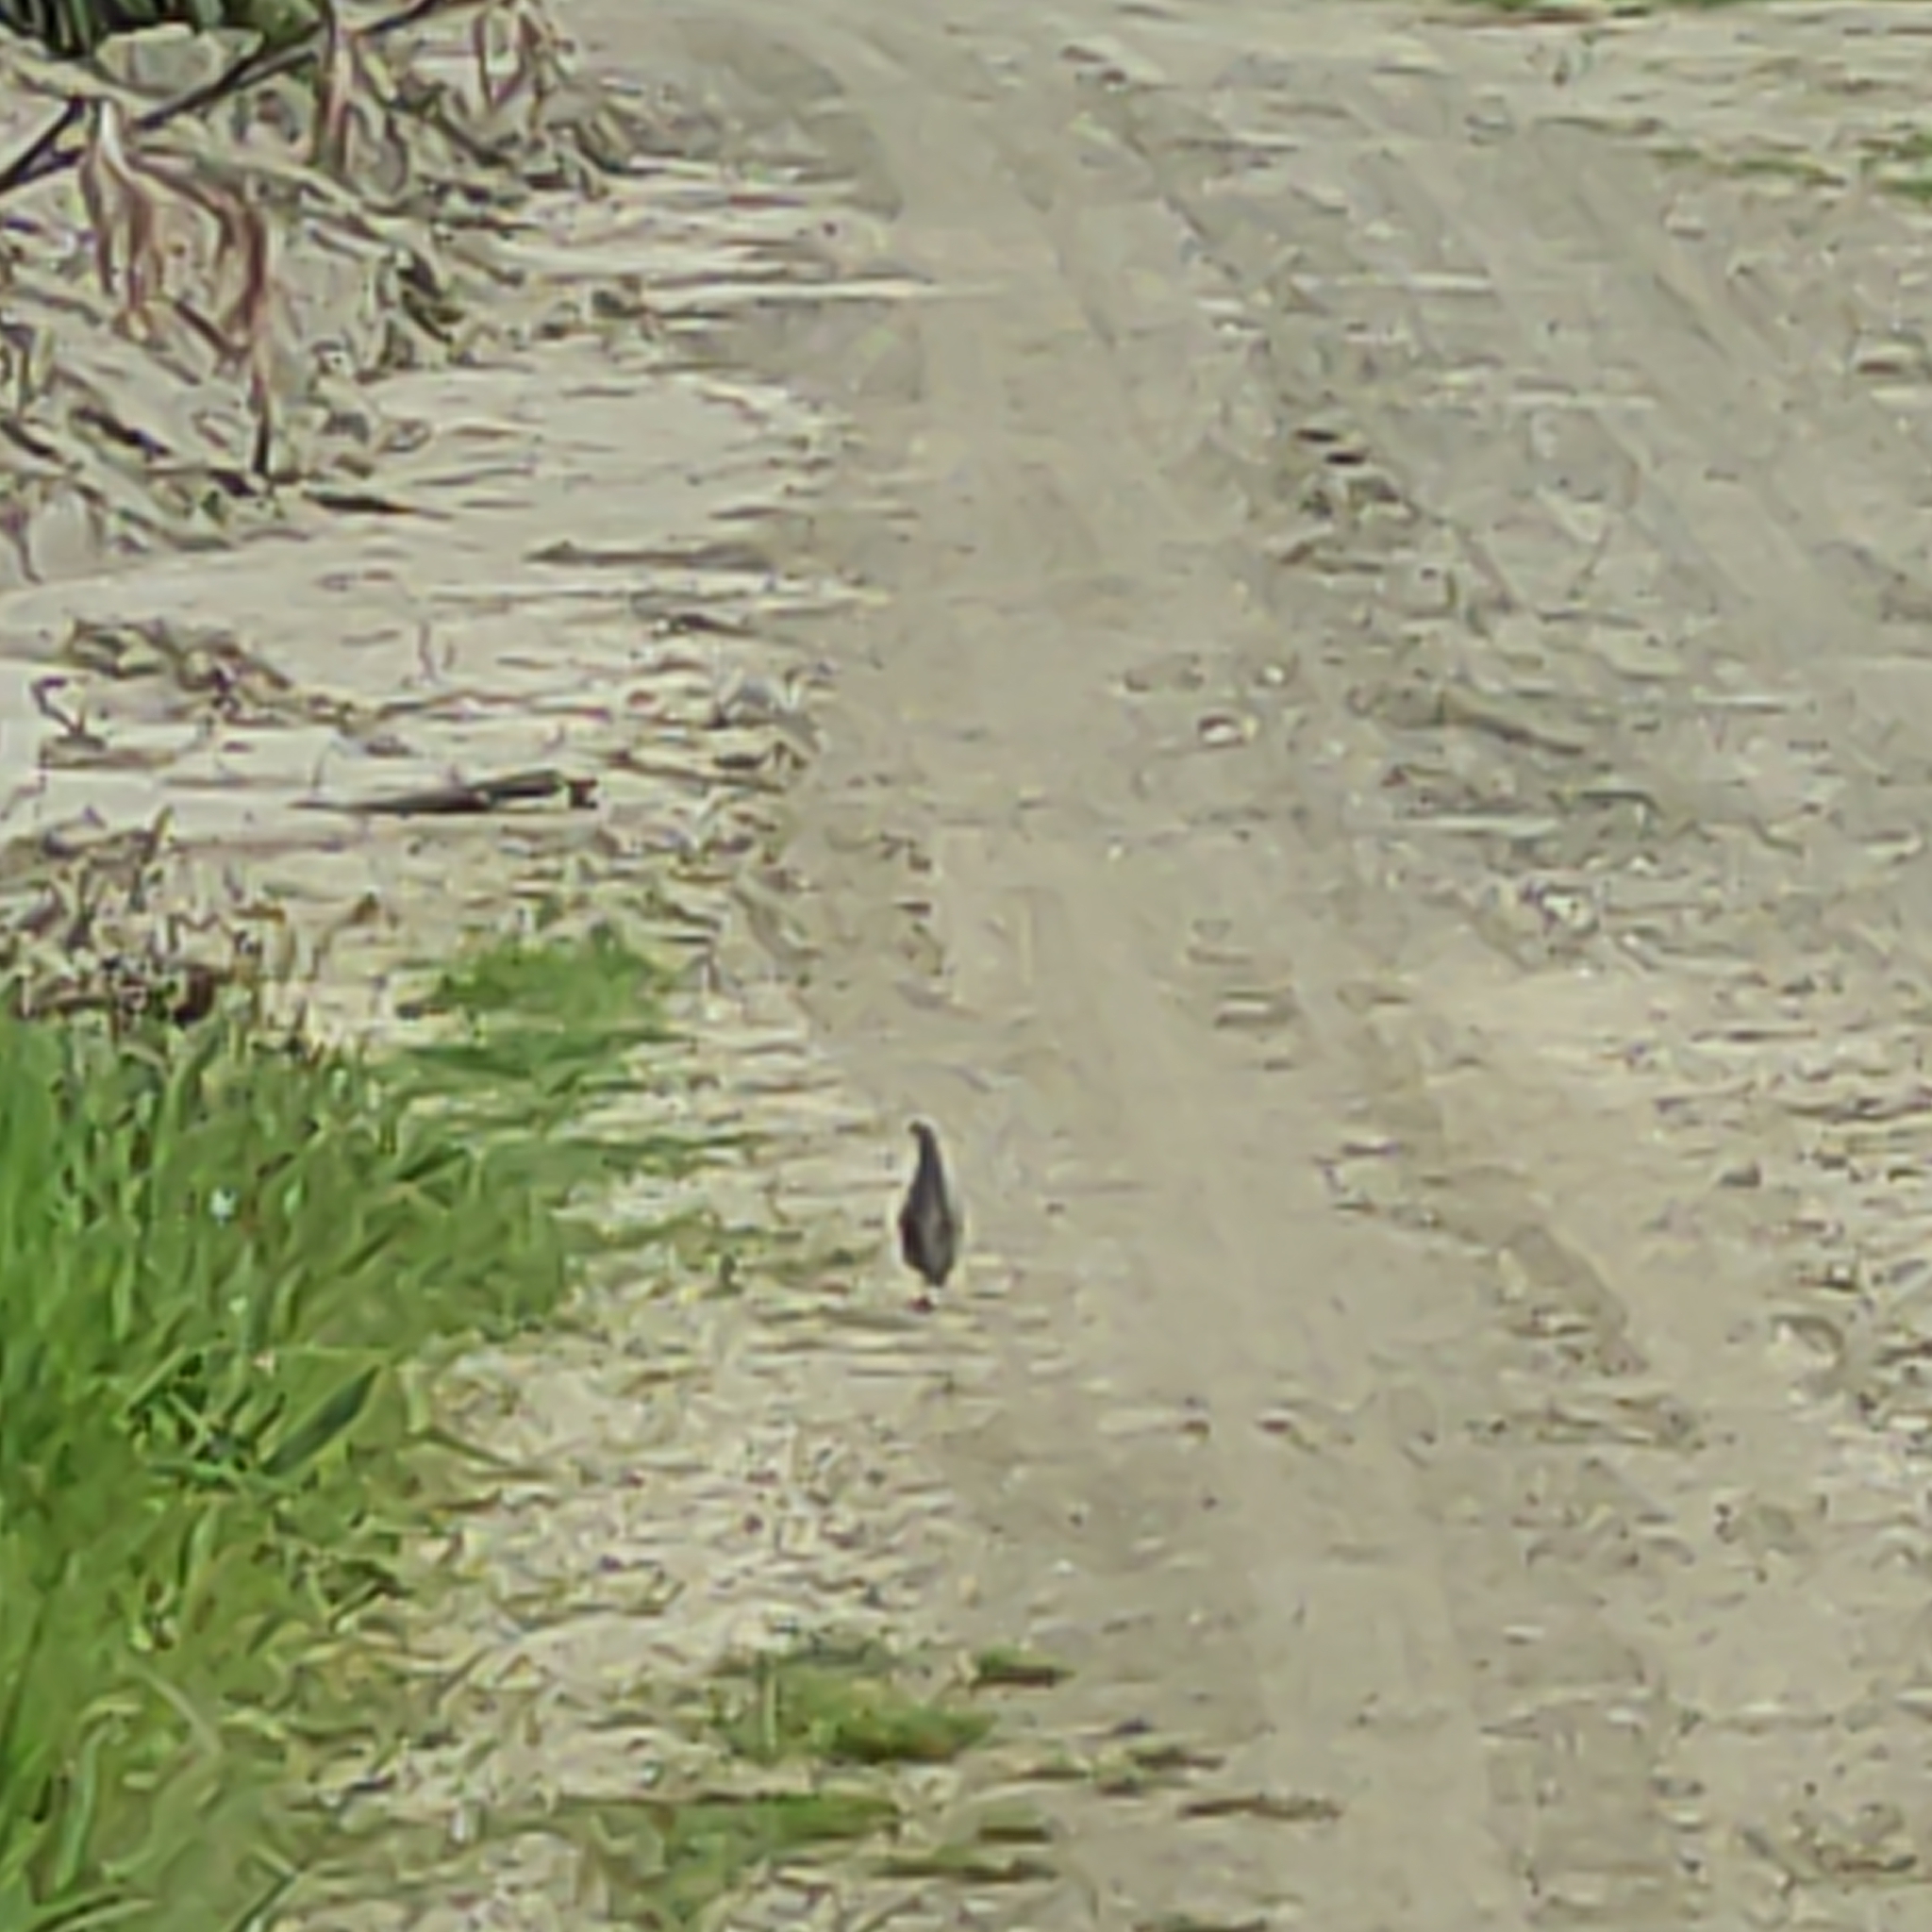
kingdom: Animalia
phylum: Chordata
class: Aves
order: Galliformes
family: Odontophoridae
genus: Callipepla
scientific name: Callipepla californica
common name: California quail
